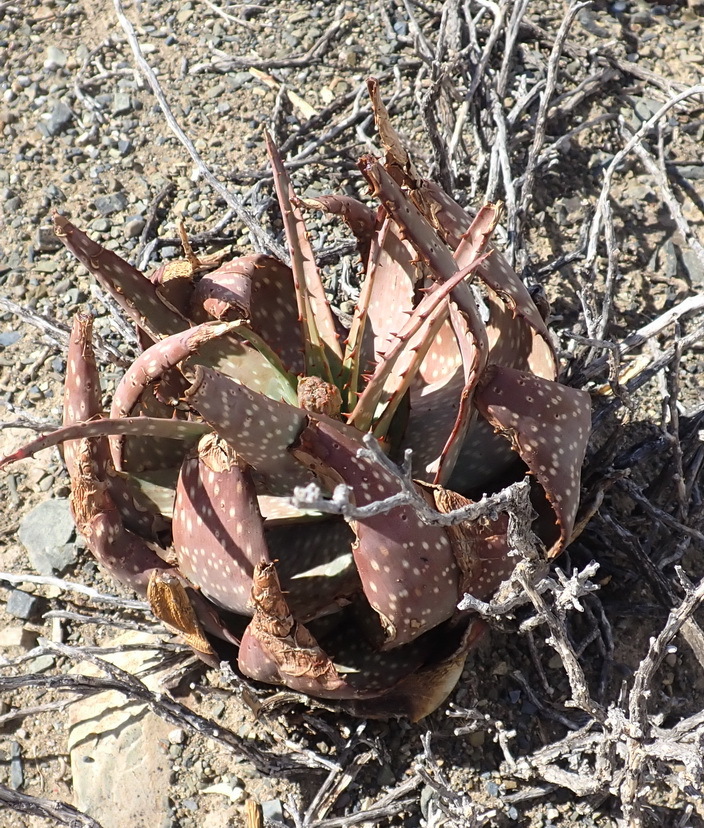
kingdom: Plantae
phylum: Tracheophyta
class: Liliopsida
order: Asparagales
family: Asphodelaceae
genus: Aloe
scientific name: Aloe microstigma
